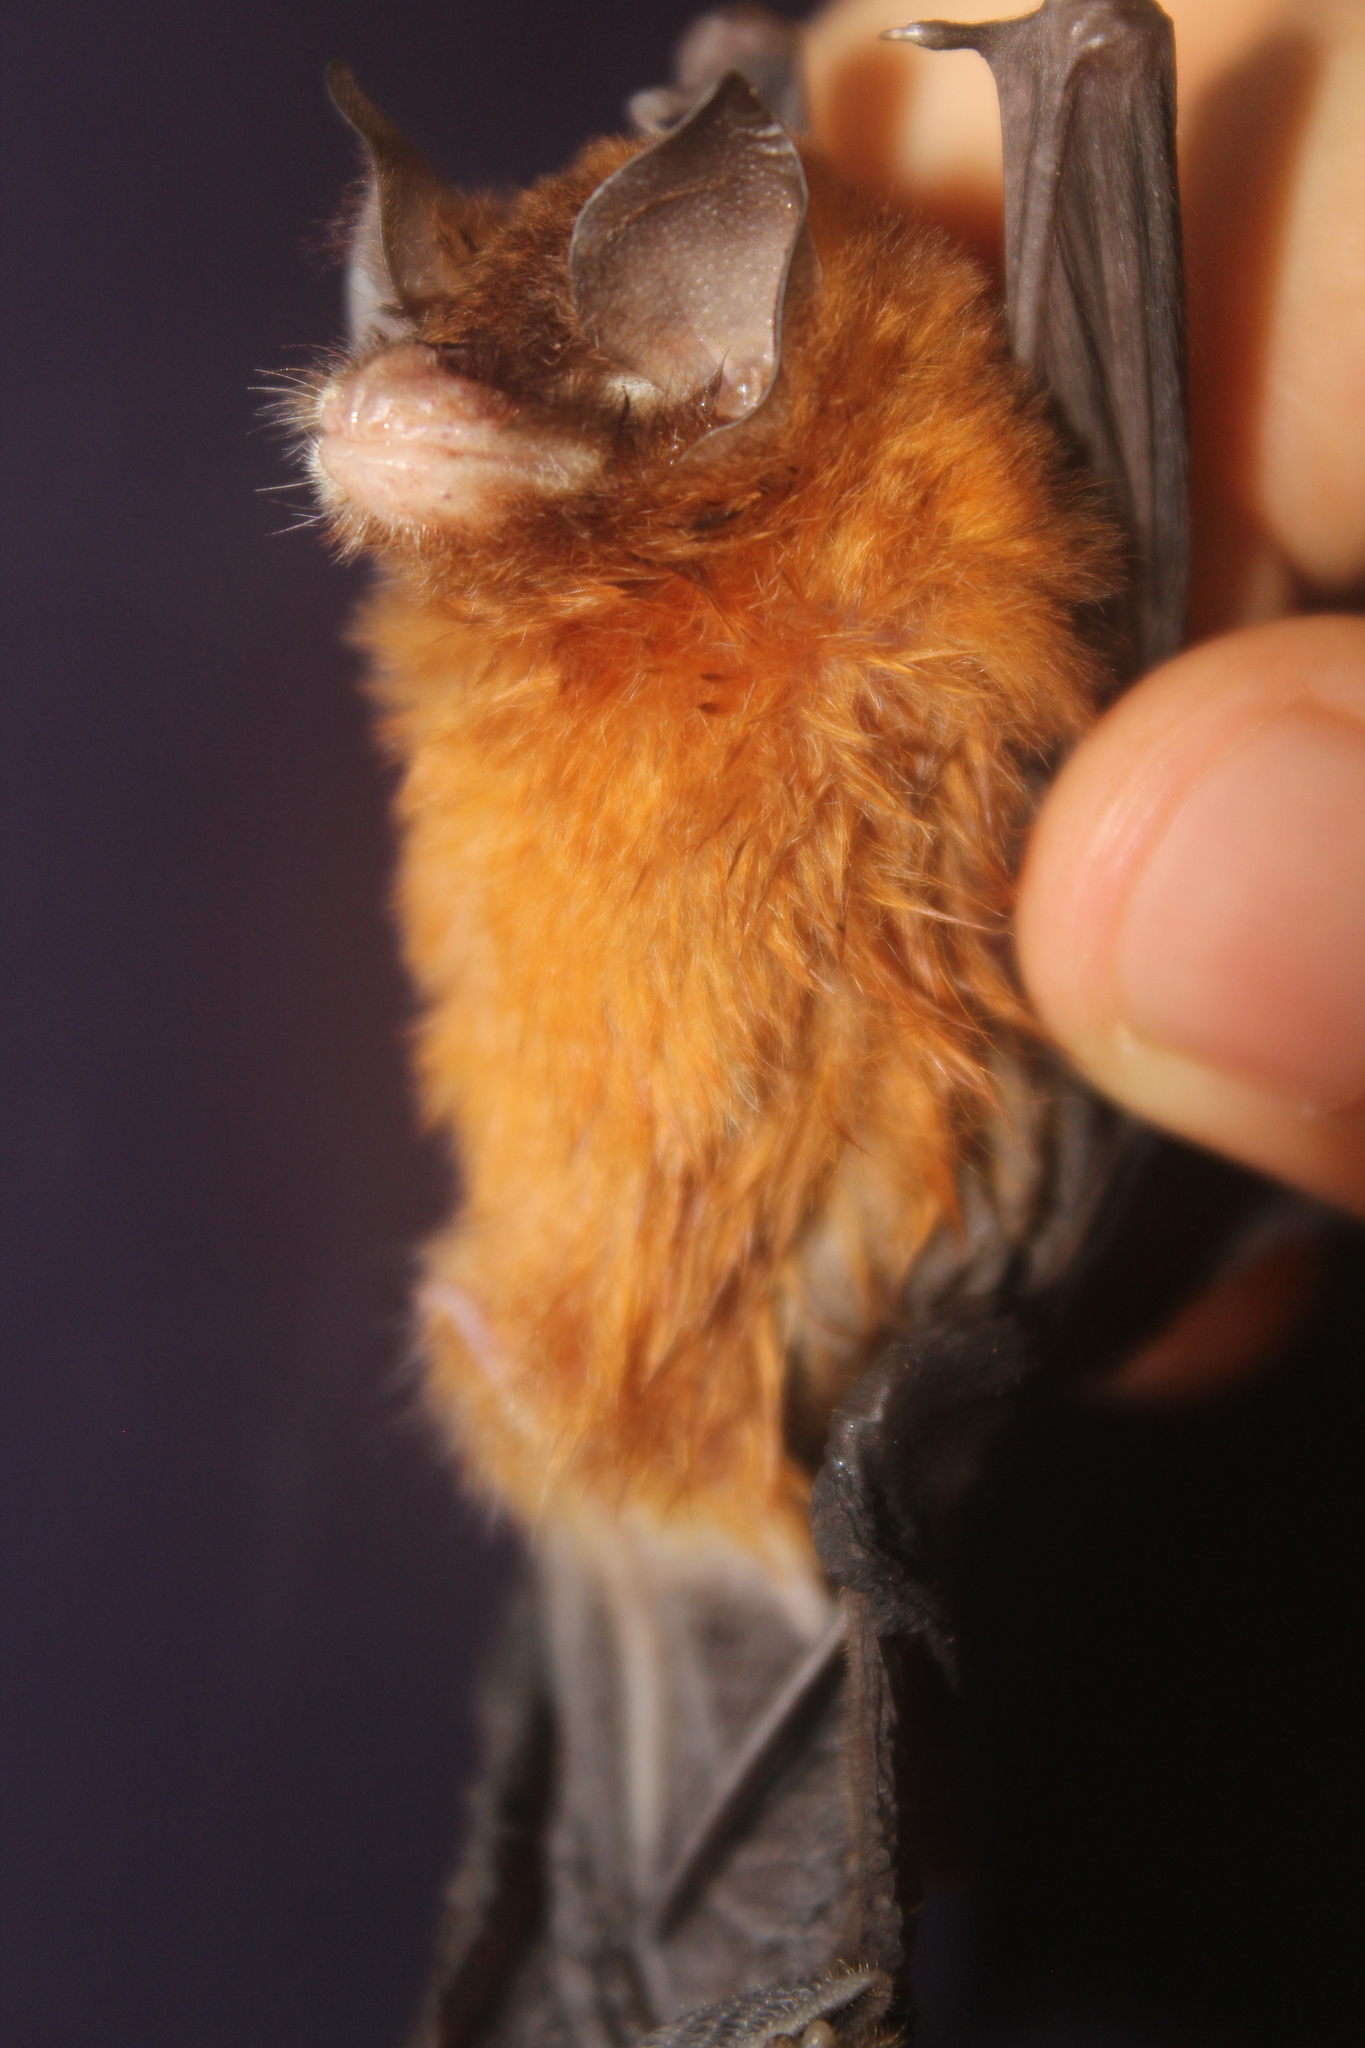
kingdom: Animalia
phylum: Chordata
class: Mammalia
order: Chiroptera
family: Natalidae
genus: Natalus
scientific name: Natalus mexicanus
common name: Mexican funnel-eared bat
